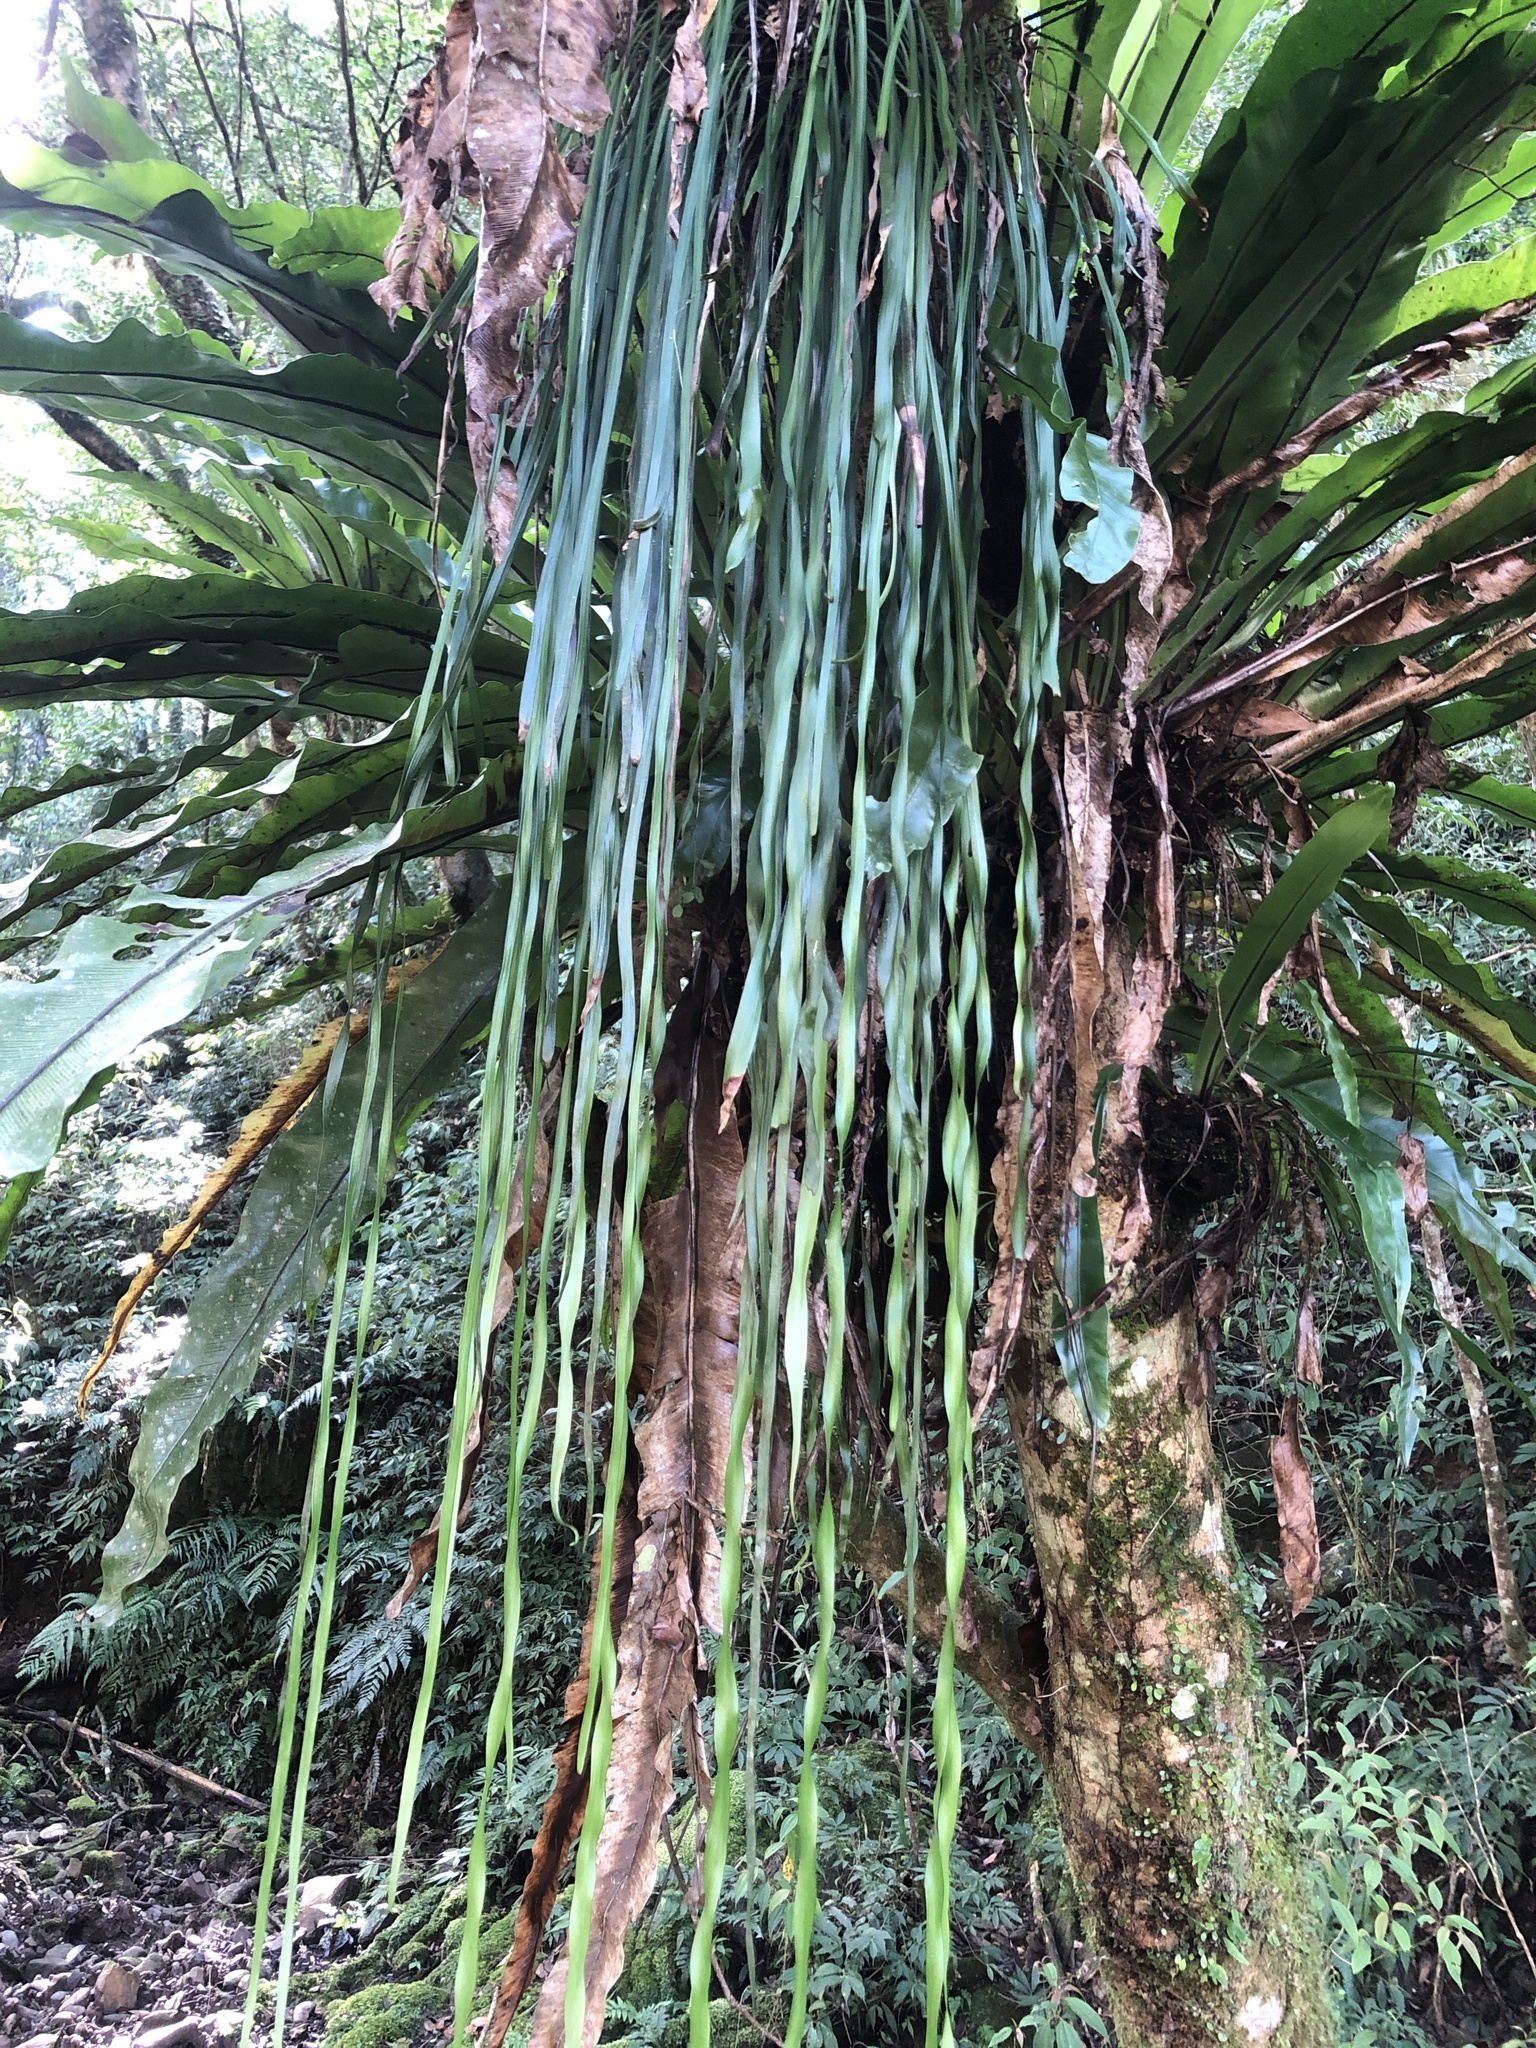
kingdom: Plantae
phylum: Tracheophyta
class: Polypodiopsida
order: Polypodiales
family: Pteridaceae
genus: Haplopteris
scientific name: Haplopteris elongata
